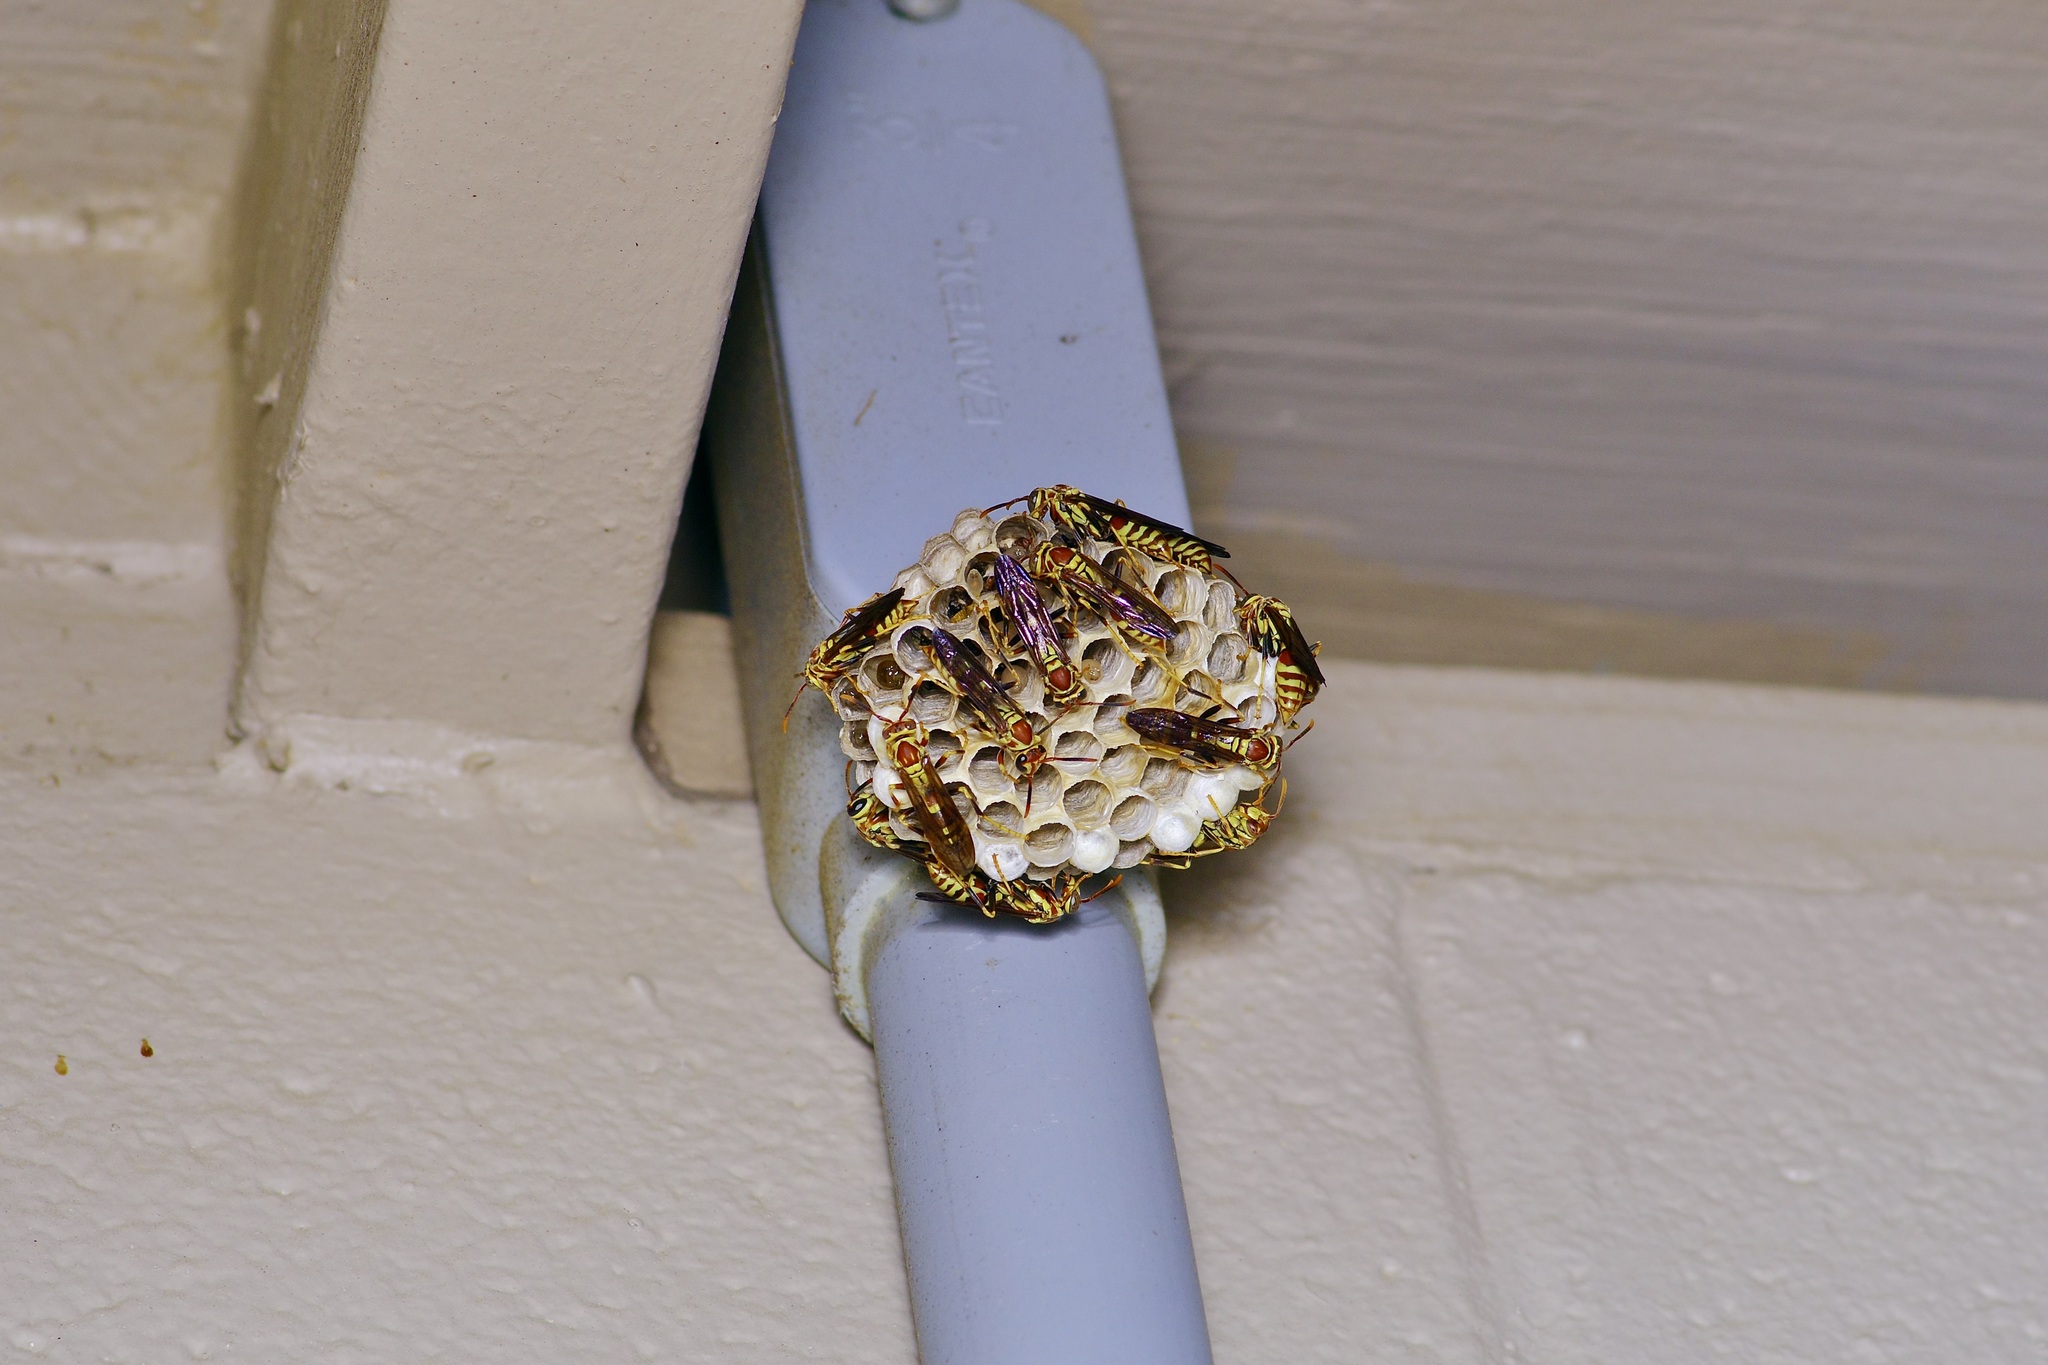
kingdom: Animalia
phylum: Arthropoda
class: Insecta
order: Hymenoptera
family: Eumenidae
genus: Polistes
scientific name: Polistes exclamans
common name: Paper wasp
